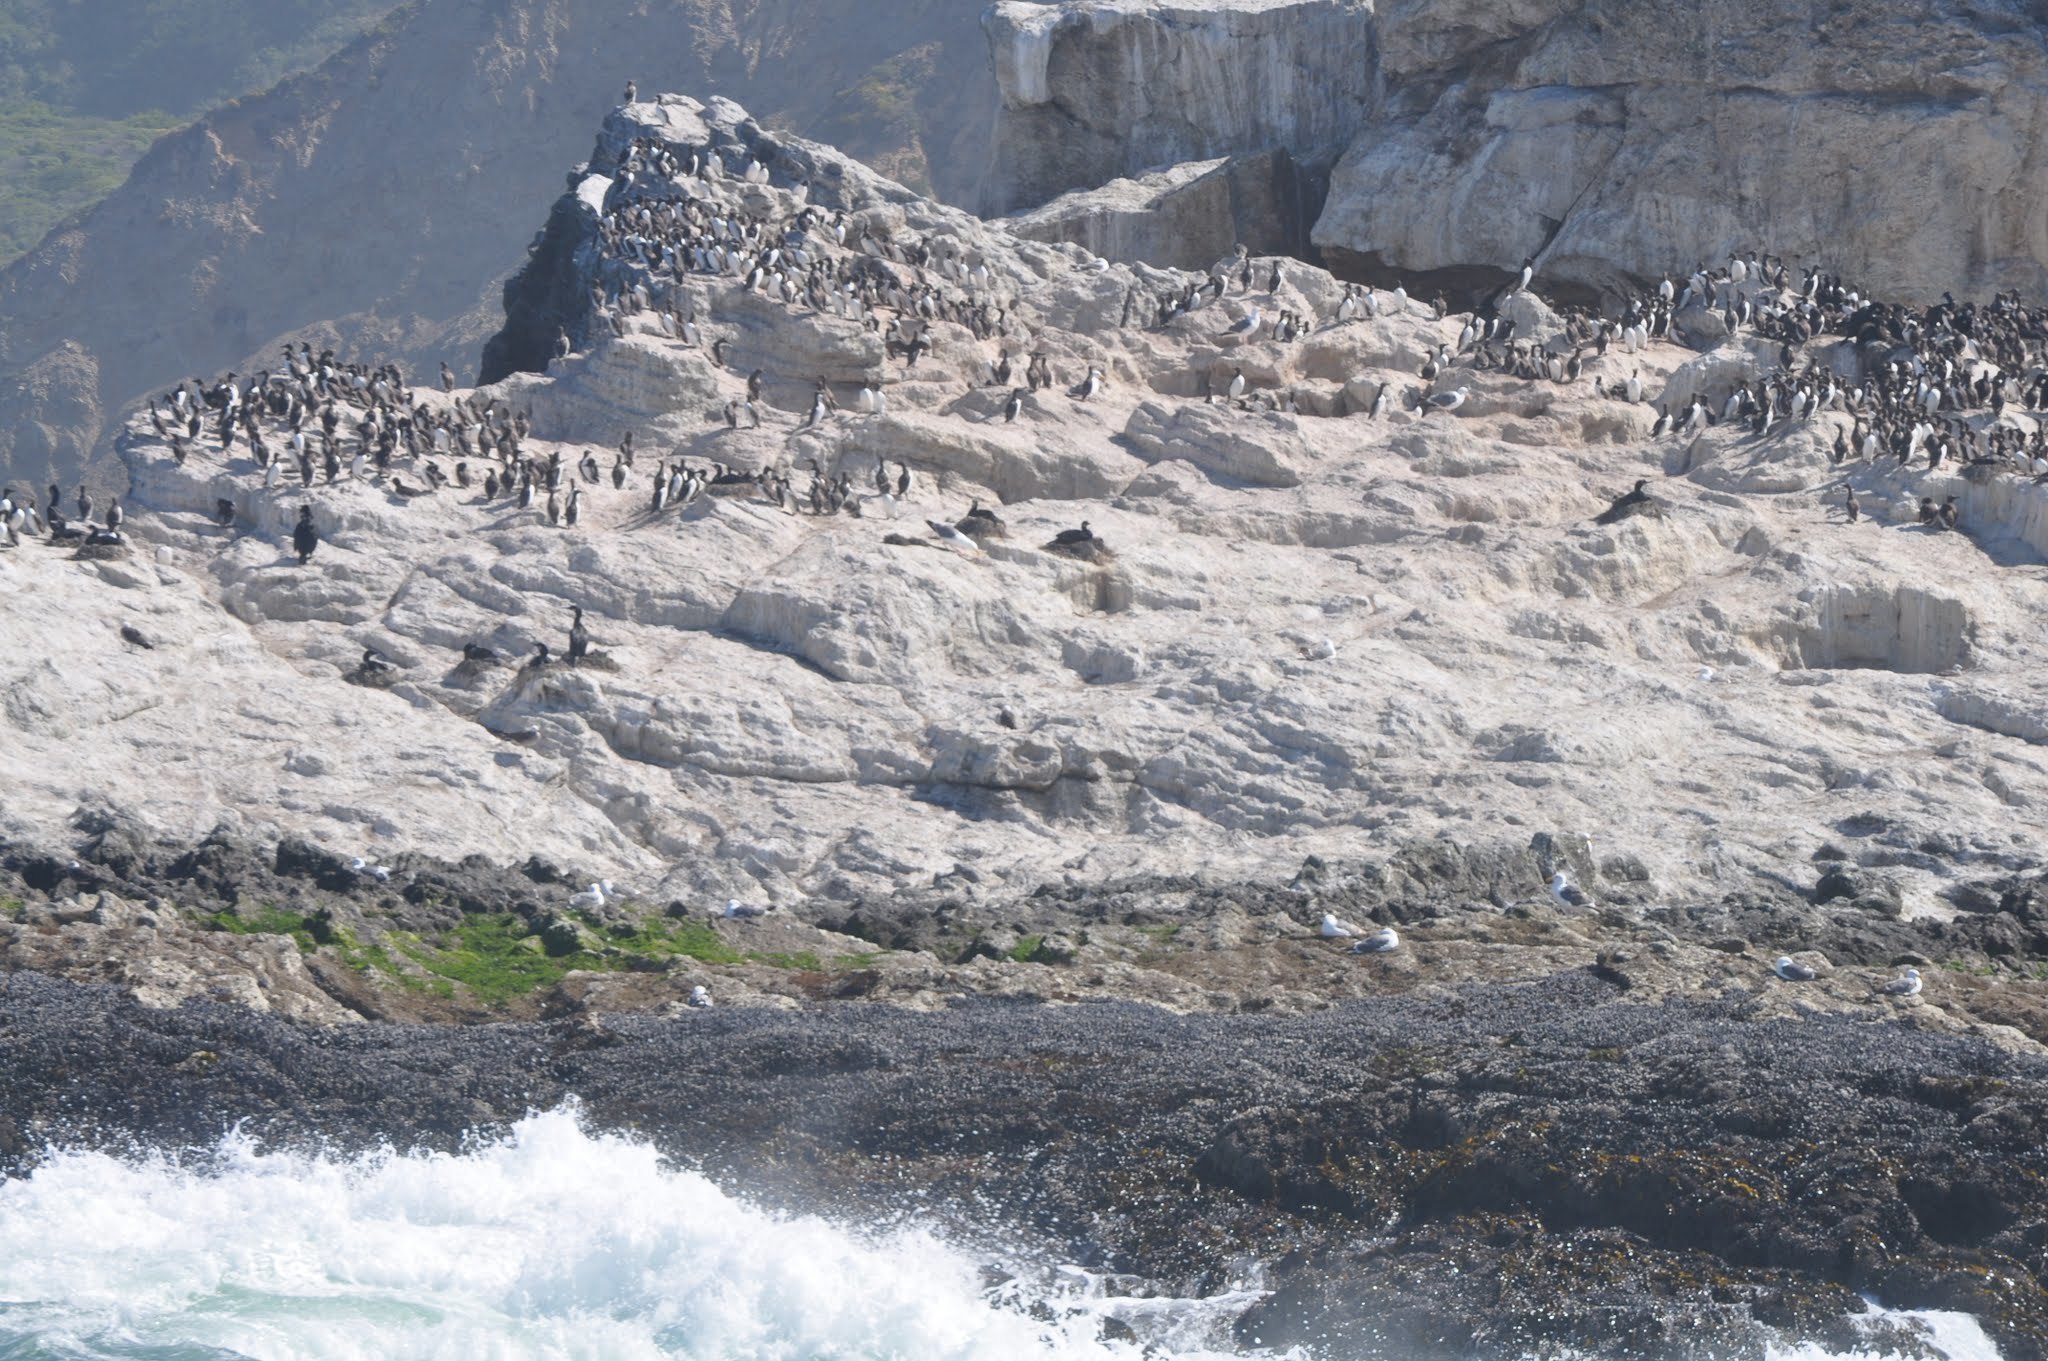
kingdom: Animalia
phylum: Chordata
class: Aves
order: Charadriiformes
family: Alcidae
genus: Uria
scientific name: Uria aalge
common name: Common murre
